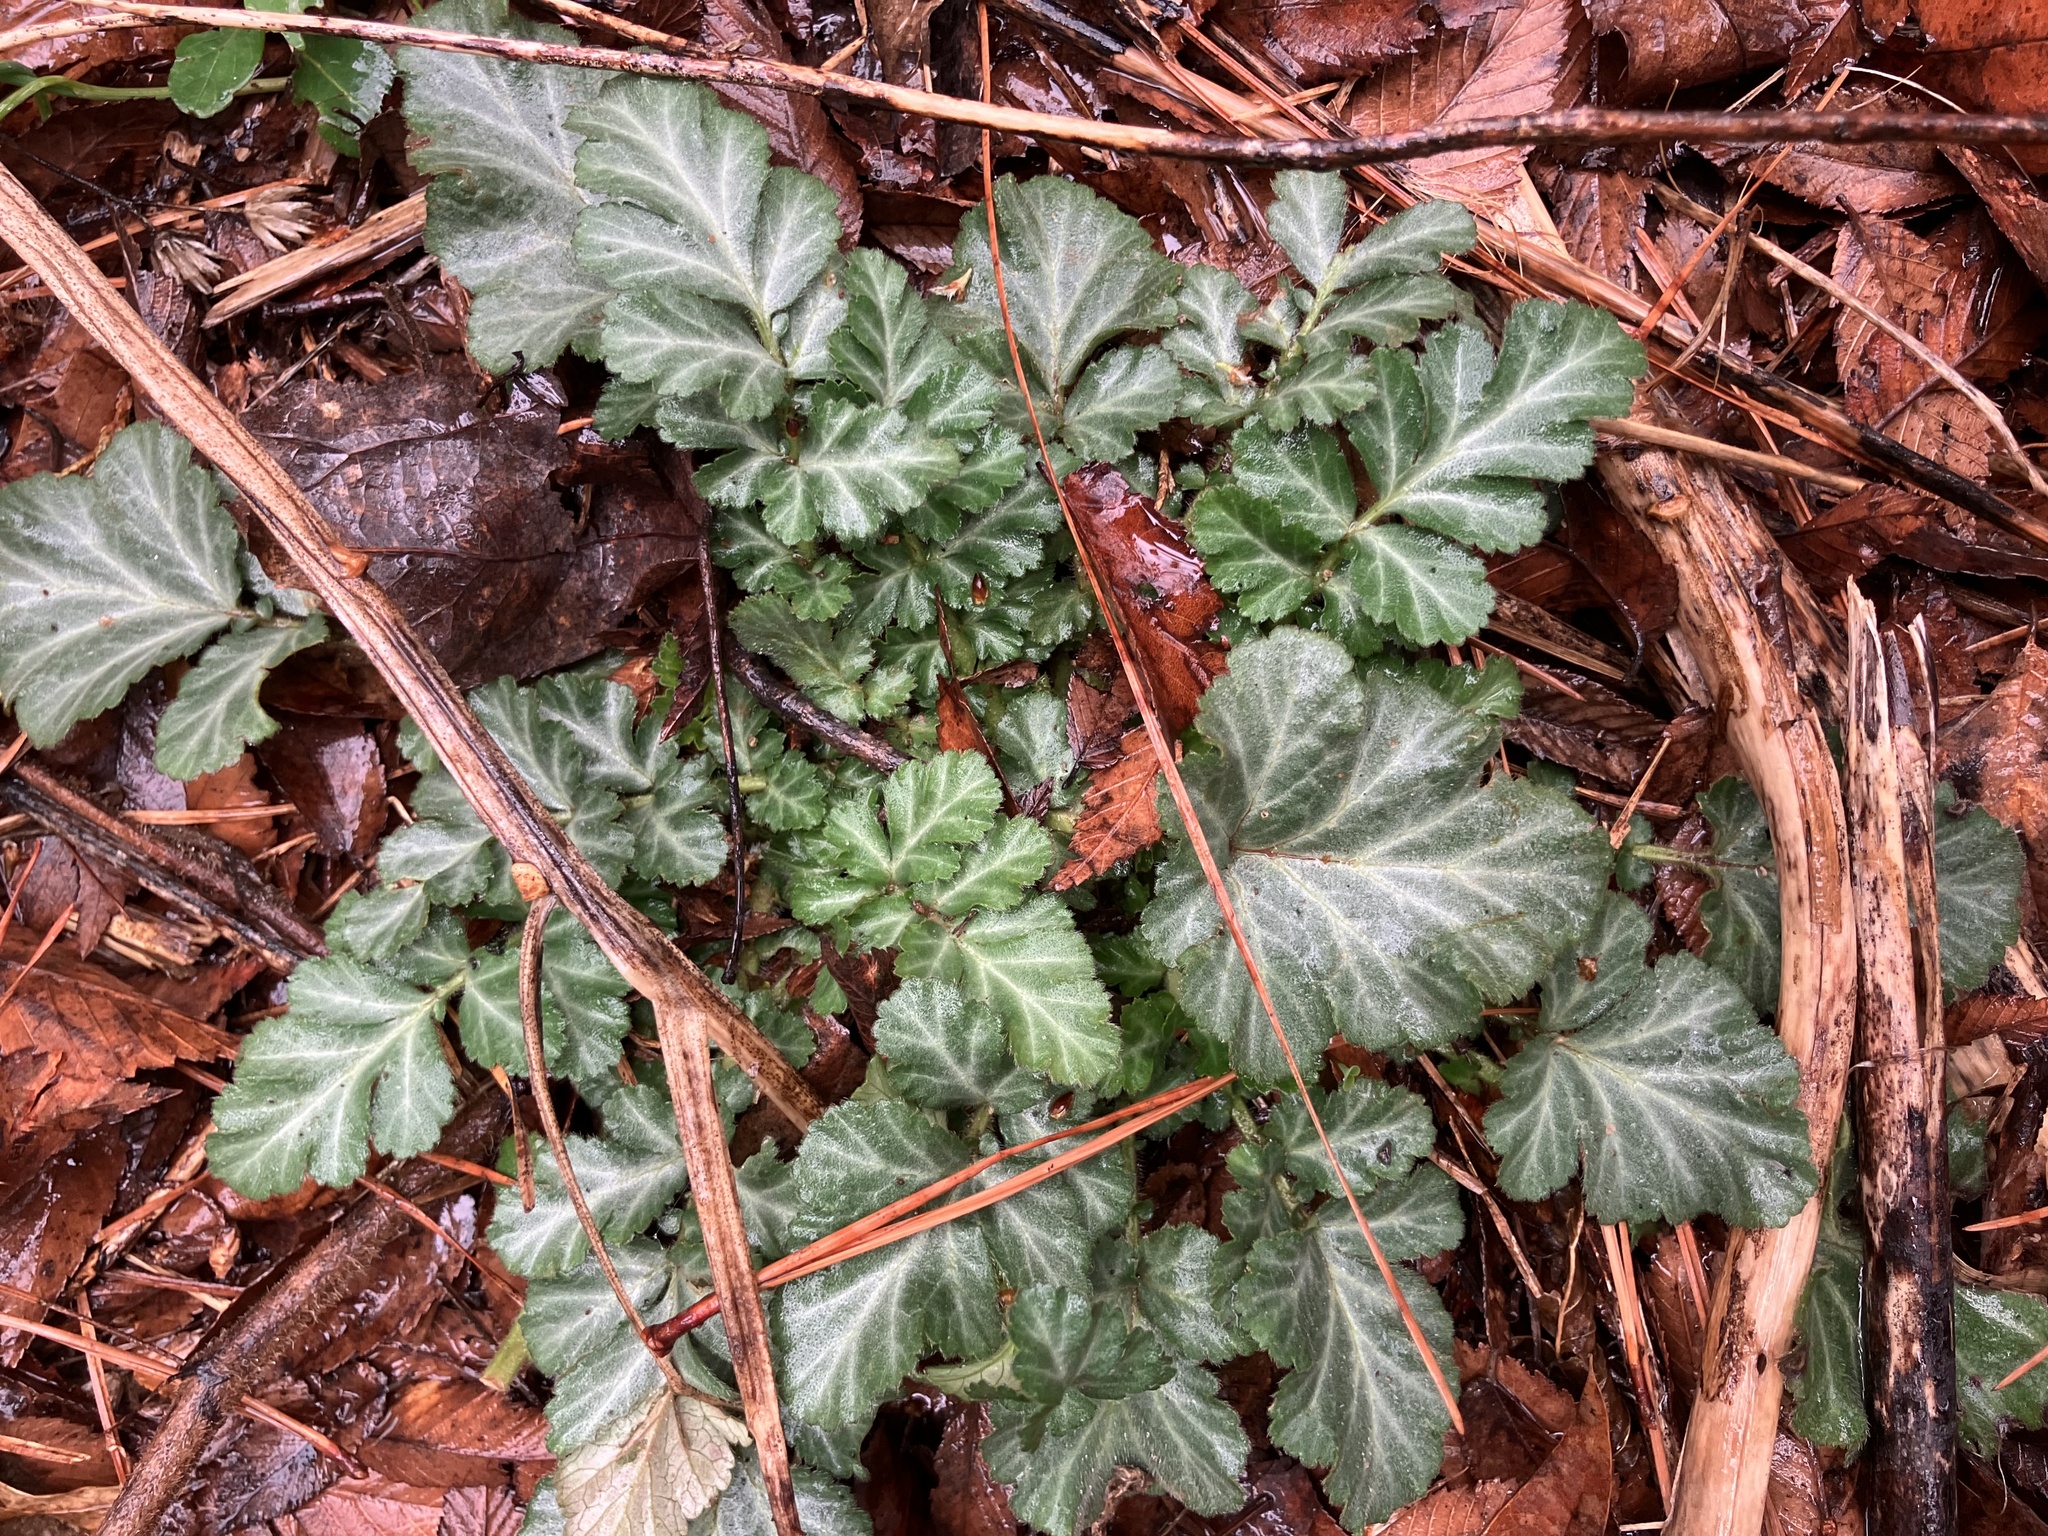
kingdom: Plantae
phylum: Tracheophyta
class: Magnoliopsida
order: Rosales
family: Rosaceae
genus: Geum
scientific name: Geum canadense
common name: White avens
